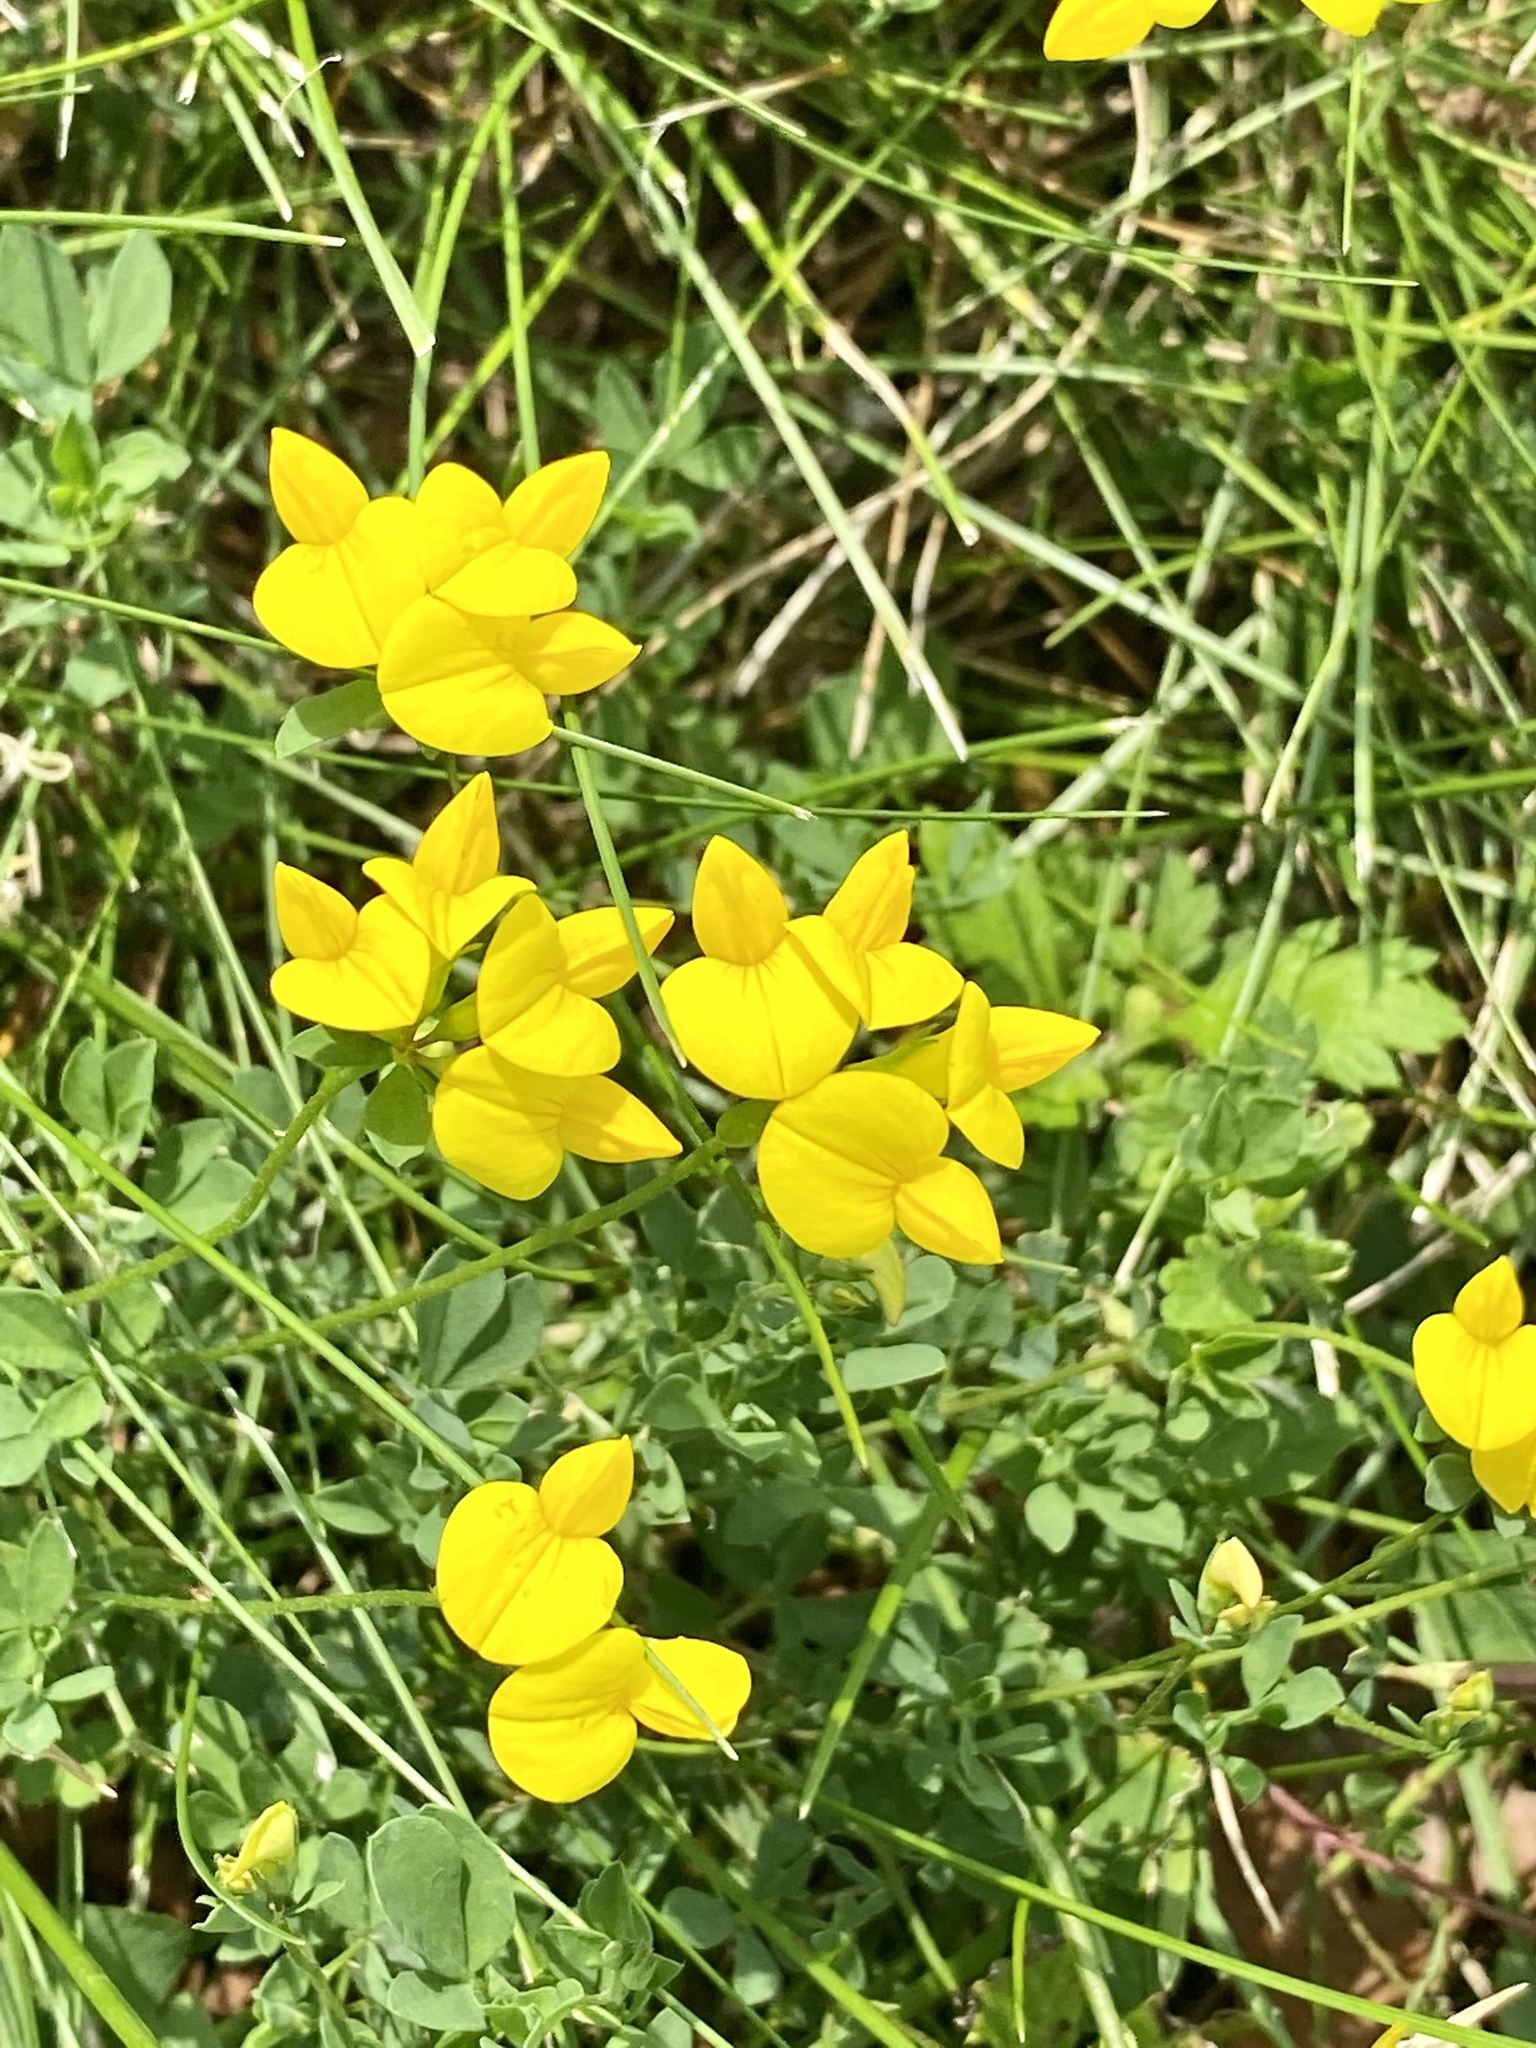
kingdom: Plantae
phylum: Tracheophyta
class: Magnoliopsida
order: Fabales
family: Fabaceae
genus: Lotus
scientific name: Lotus corniculatus
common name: Common bird's-foot-trefoil
